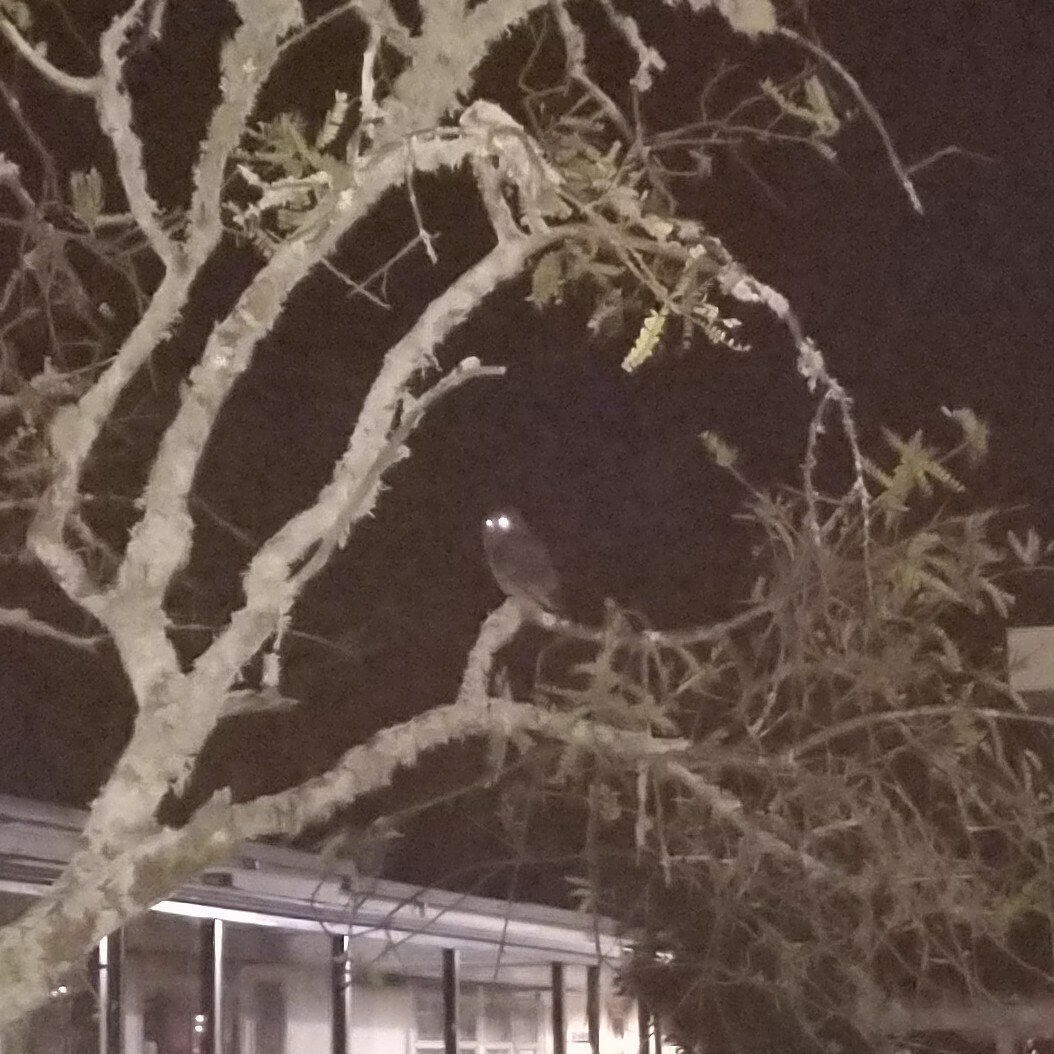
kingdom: Animalia
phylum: Chordata
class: Aves
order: Strigiformes
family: Strigidae
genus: Ninox
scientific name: Ninox novaeseelandiae
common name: Morepork
